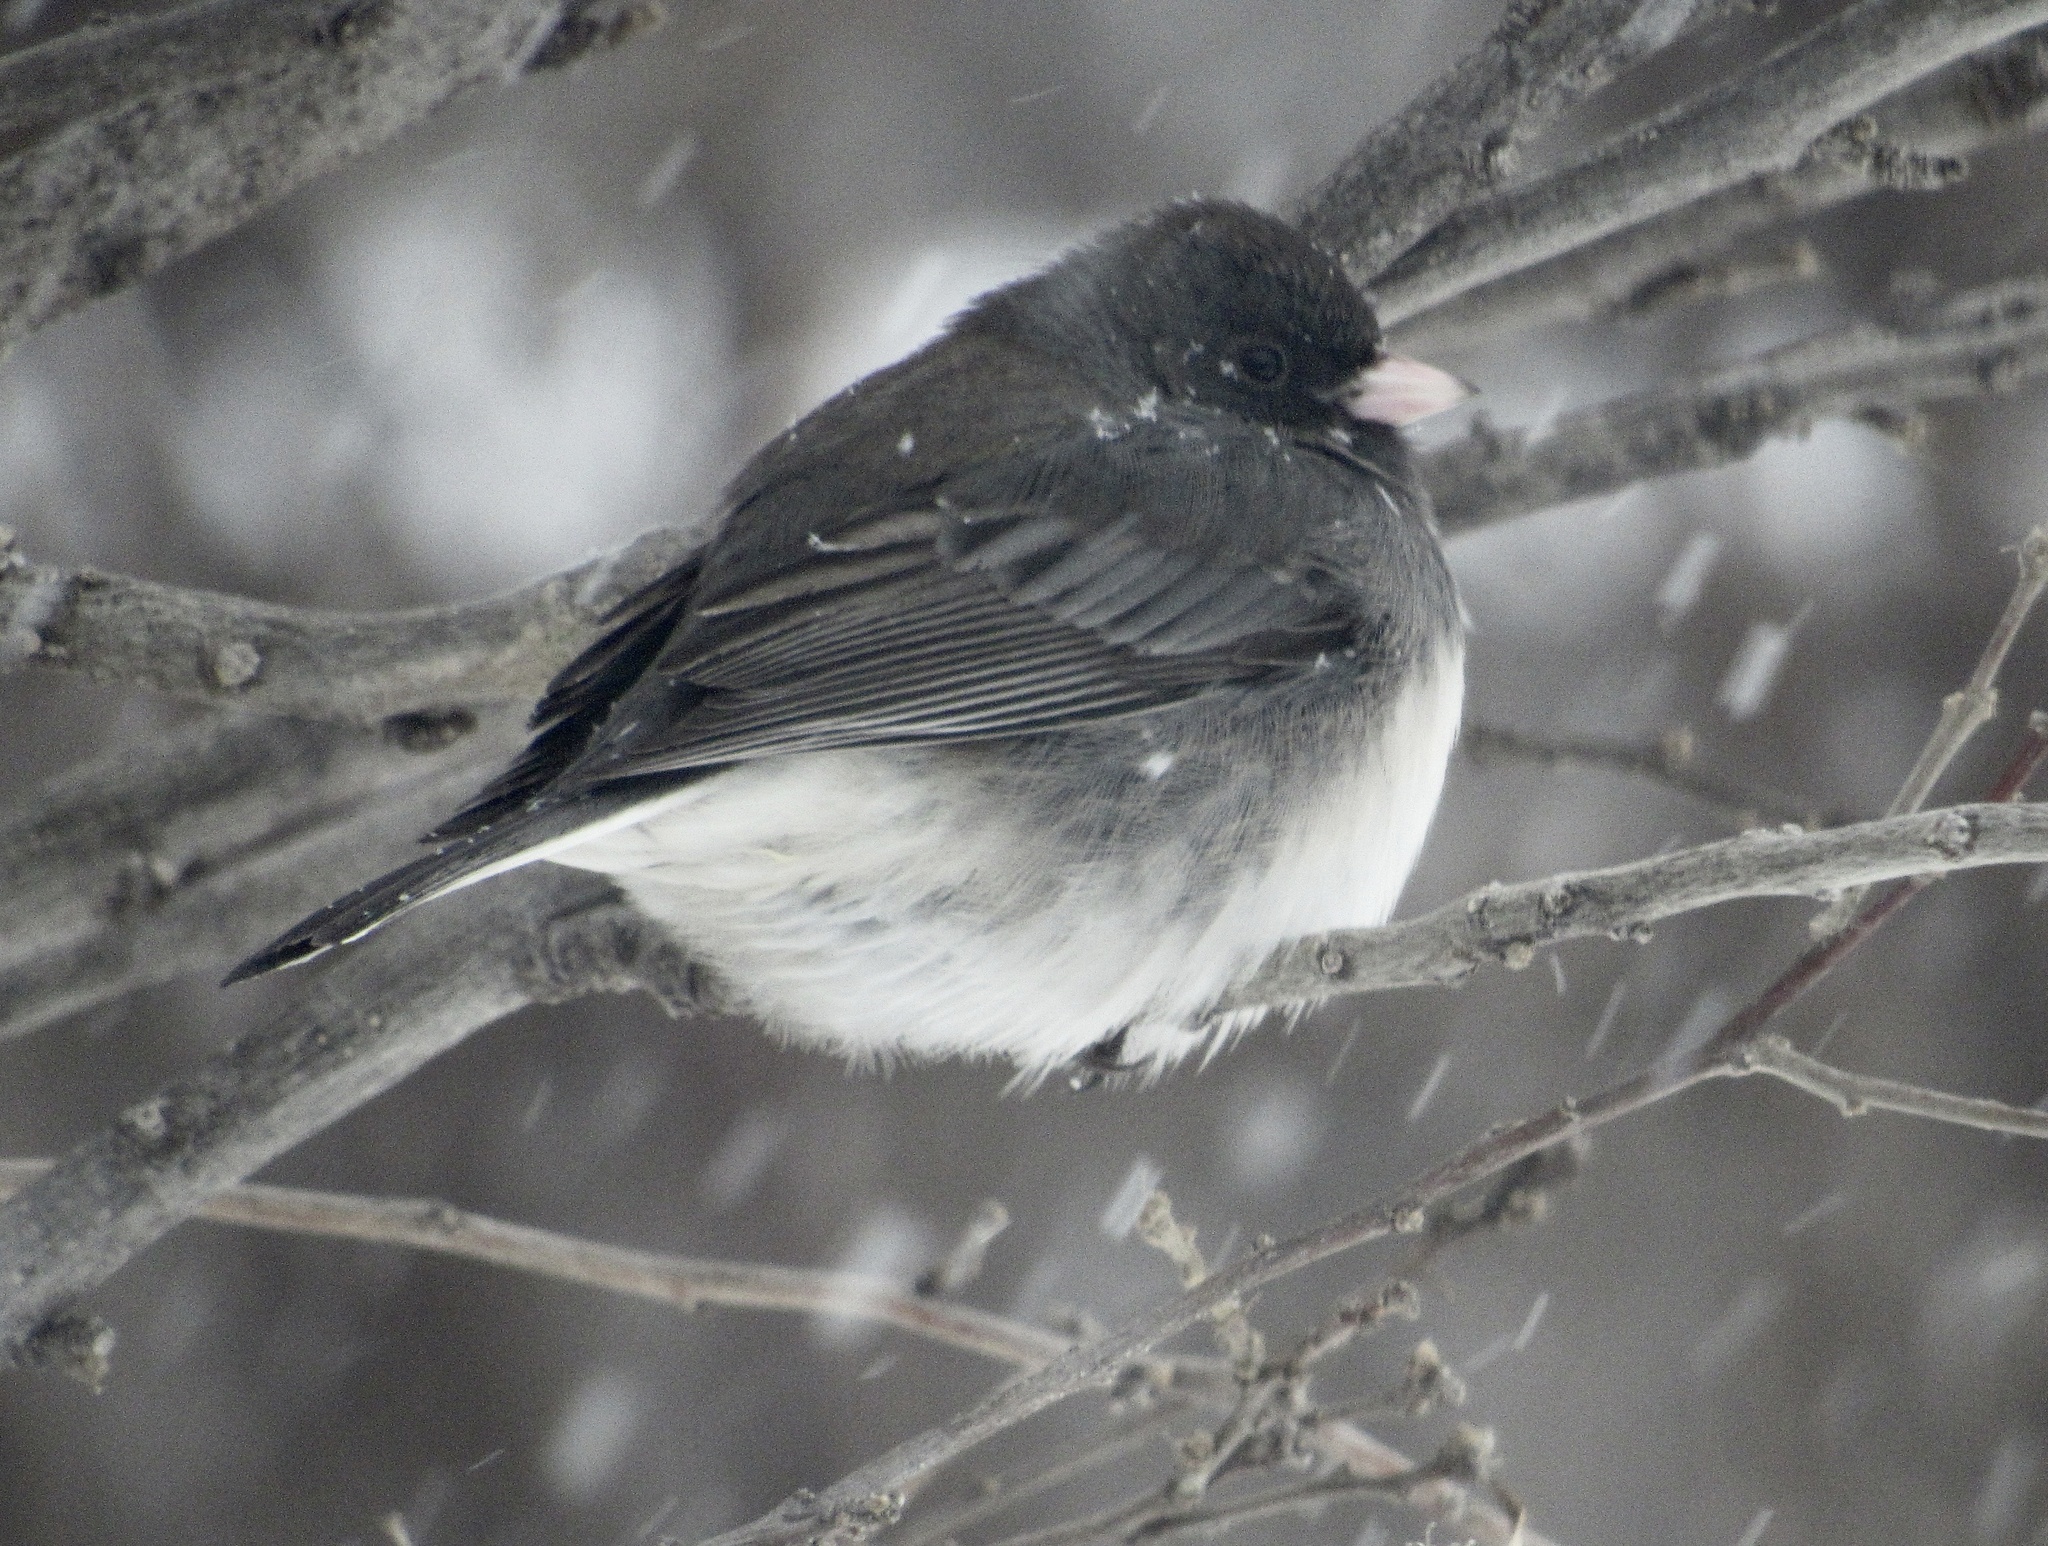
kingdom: Animalia
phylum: Chordata
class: Aves
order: Passeriformes
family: Passerellidae
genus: Junco
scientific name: Junco hyemalis
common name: Dark-eyed junco
